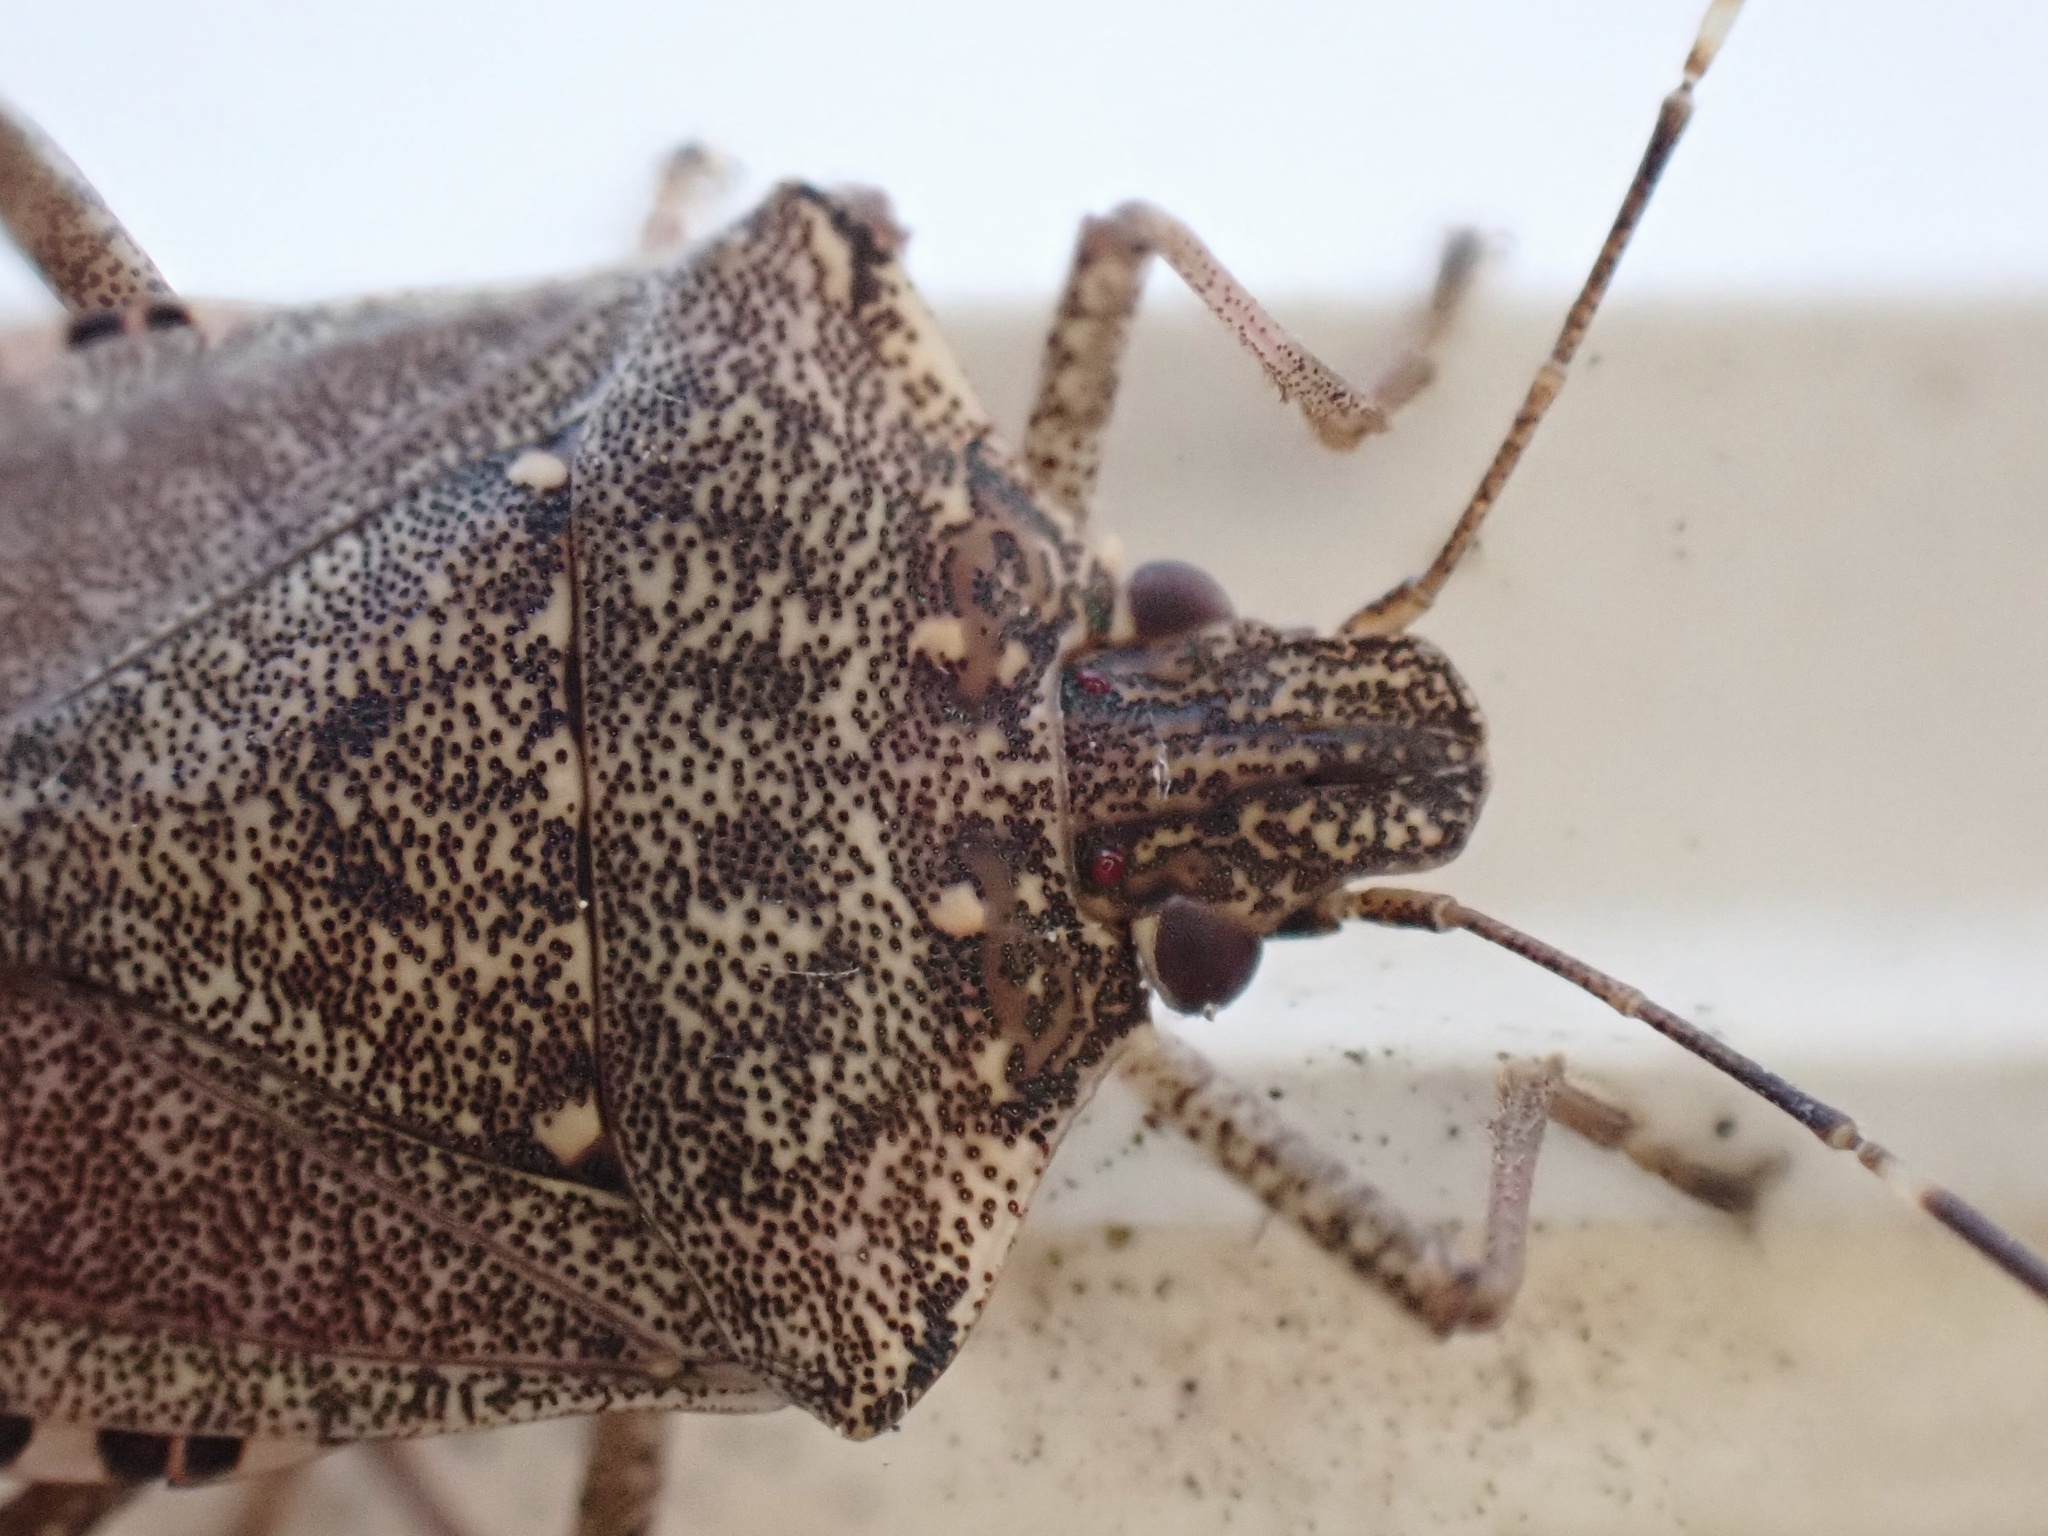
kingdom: Animalia
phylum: Arthropoda
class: Insecta
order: Hemiptera
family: Pentatomidae
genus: Halyomorpha
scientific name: Halyomorpha halys
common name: Brown marmorated stink bug
